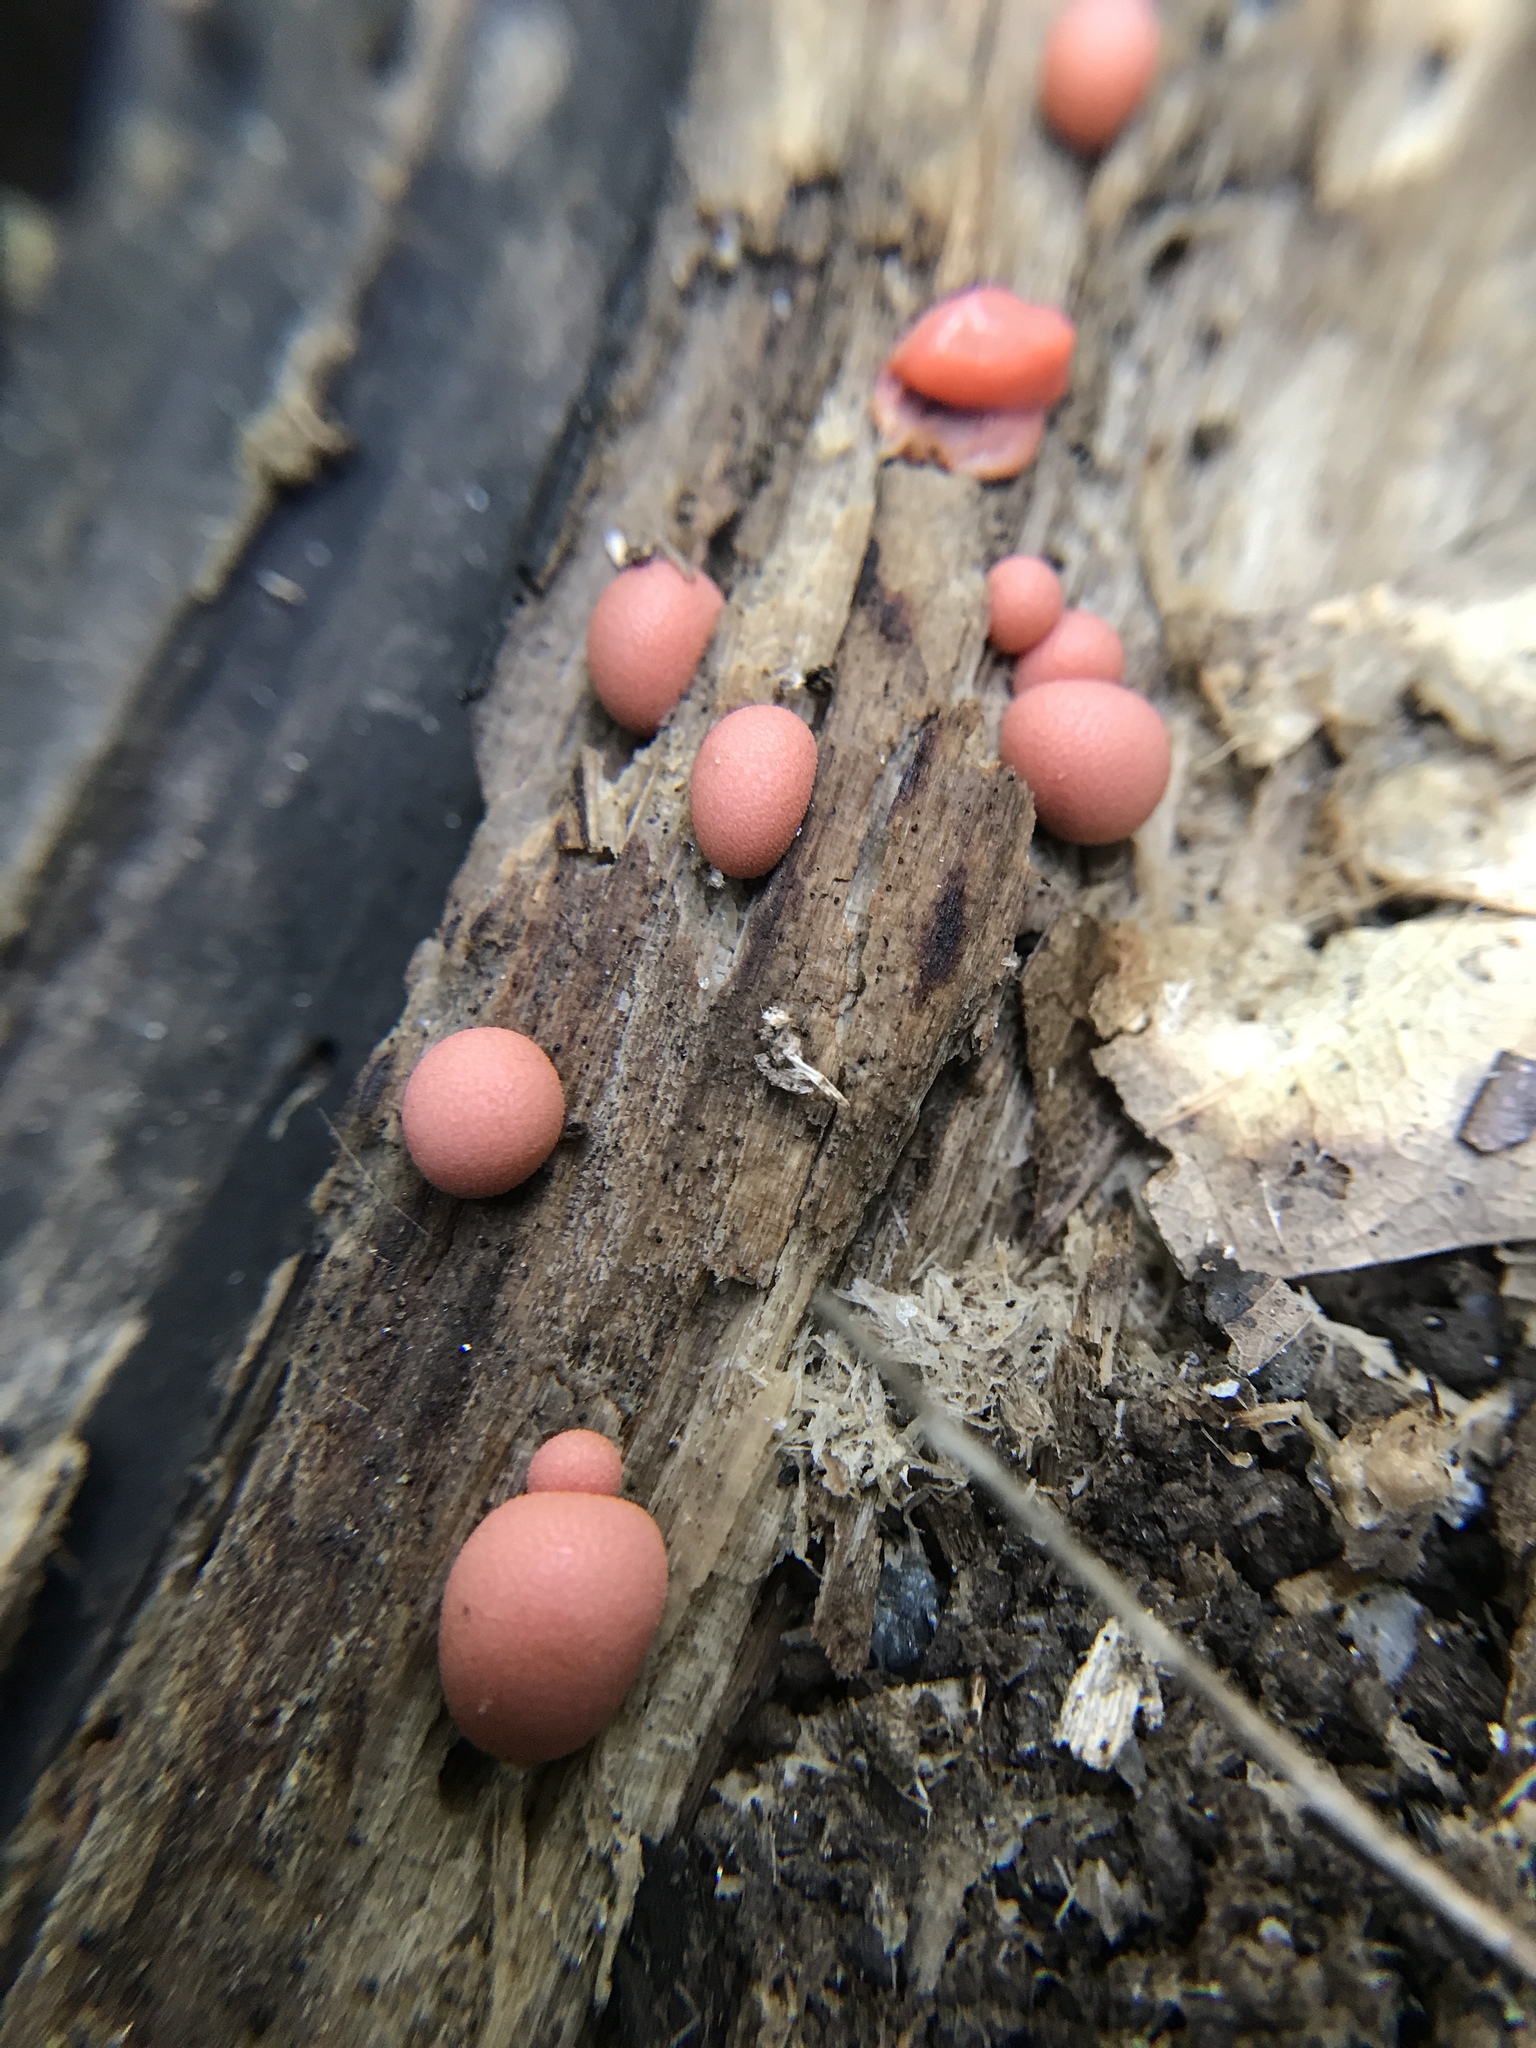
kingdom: Protozoa
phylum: Mycetozoa
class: Myxomycetes
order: Cribrariales
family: Tubiferaceae
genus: Lycogala
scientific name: Lycogala epidendrum
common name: Wolf's milk
